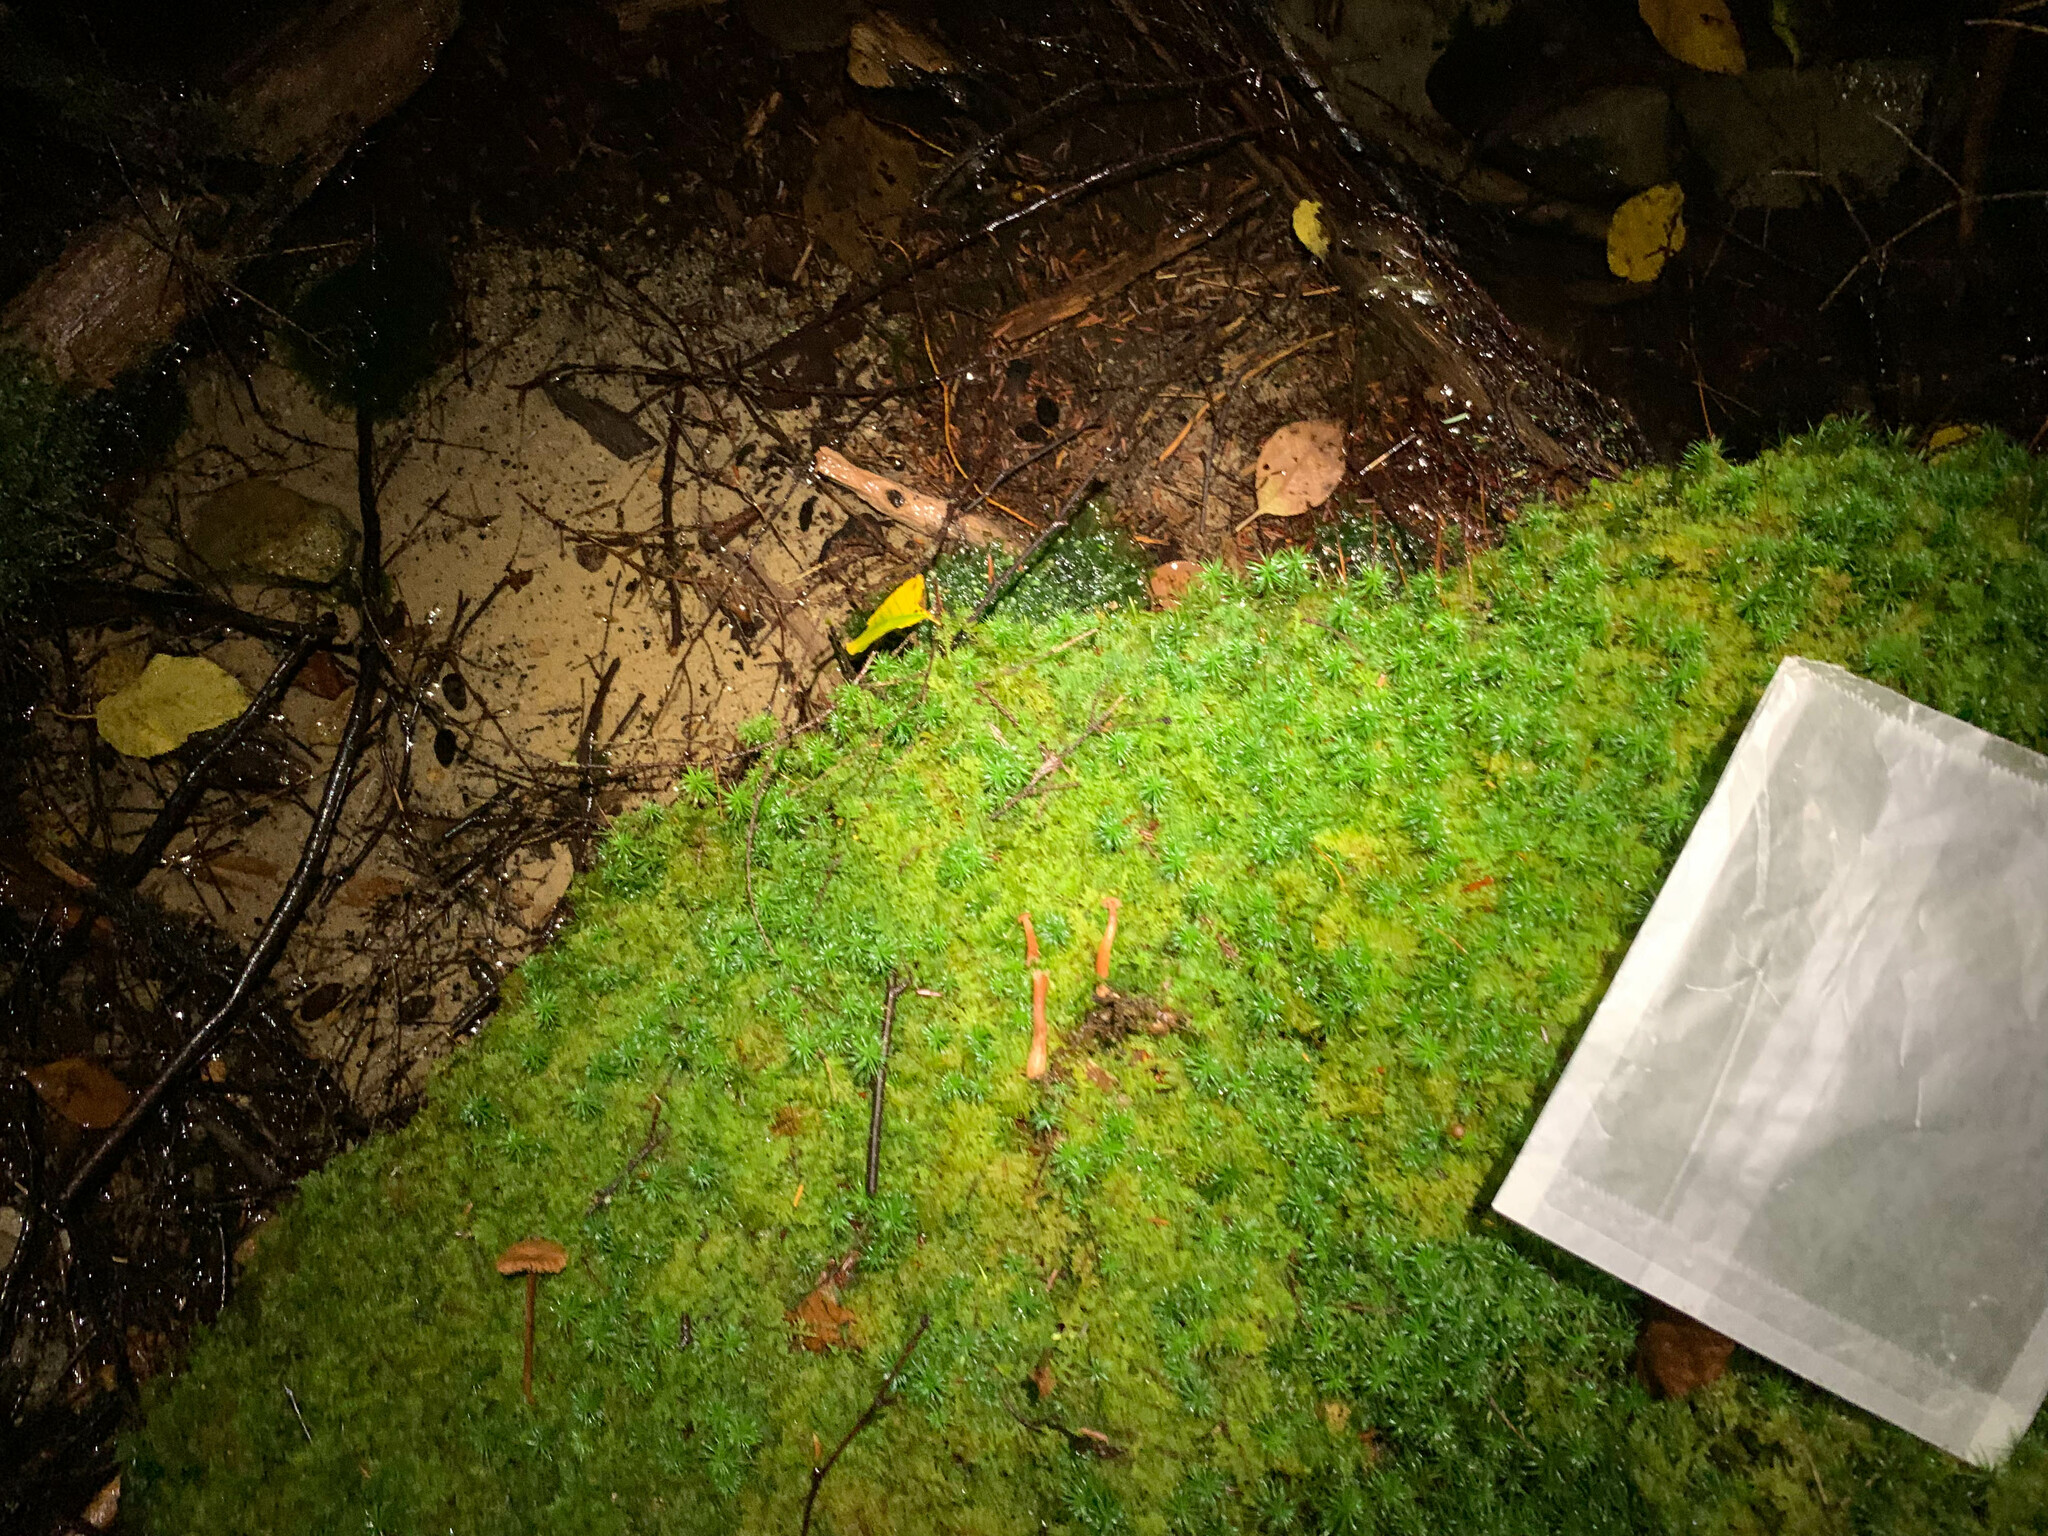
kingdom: Fungi
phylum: Basidiomycota
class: Agaricomycetes
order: Agaricales
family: Hydnangiaceae
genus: Laccaria
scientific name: Laccaria striatula
